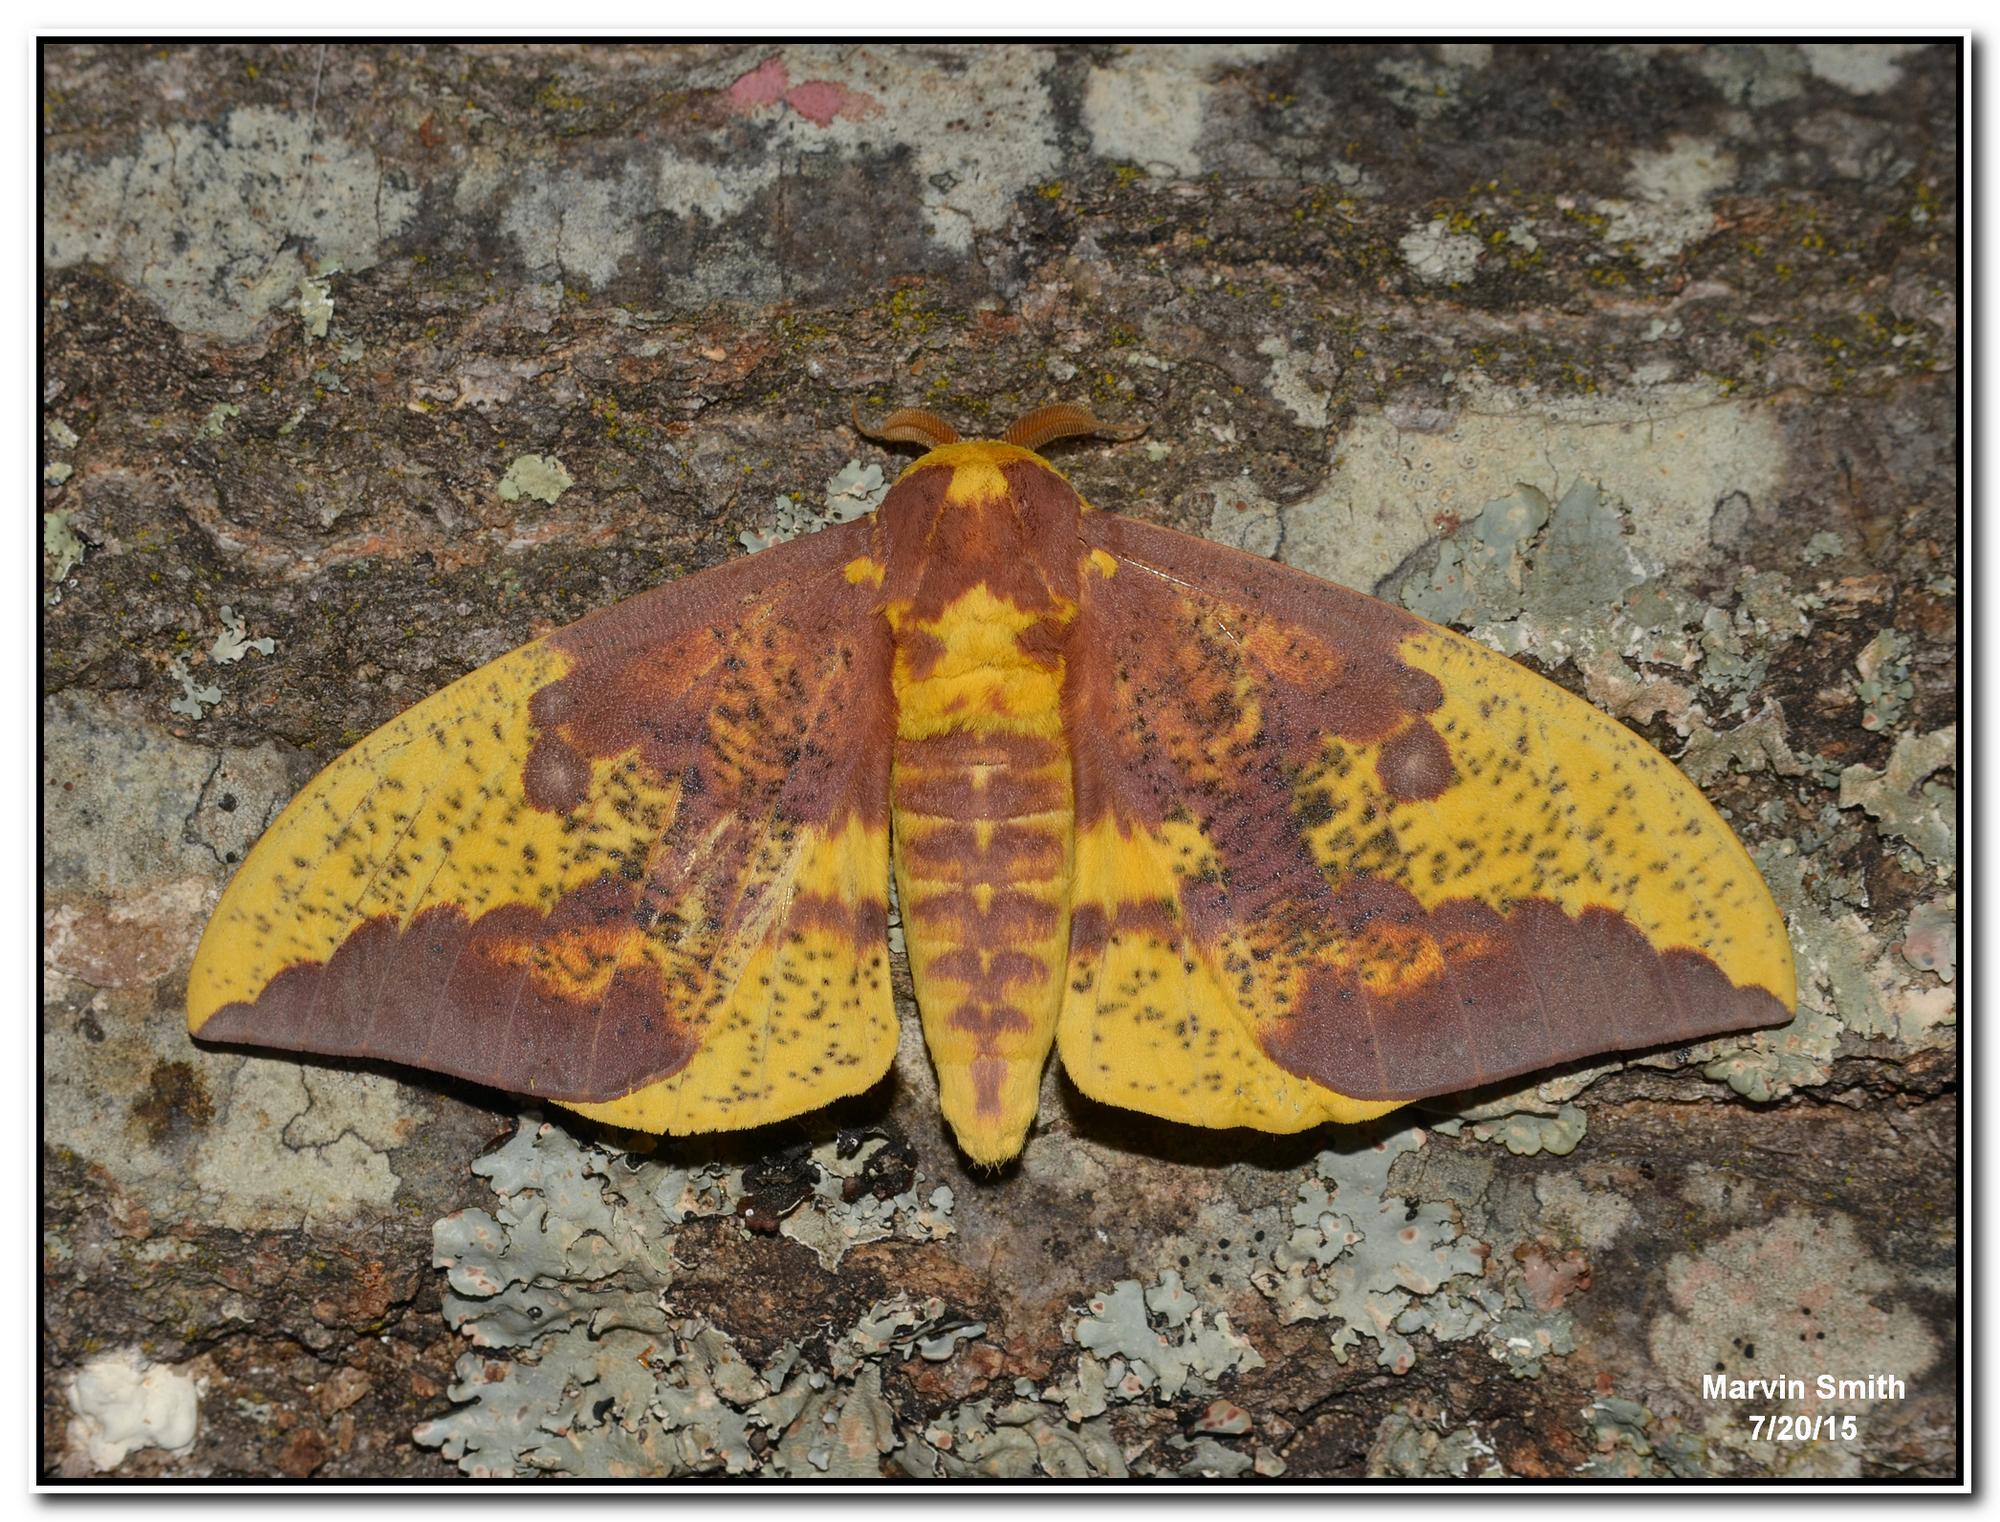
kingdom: Animalia
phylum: Arthropoda
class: Insecta
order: Lepidoptera
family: Saturniidae
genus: Eacles
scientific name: Eacles imperialis
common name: Imperial moth
